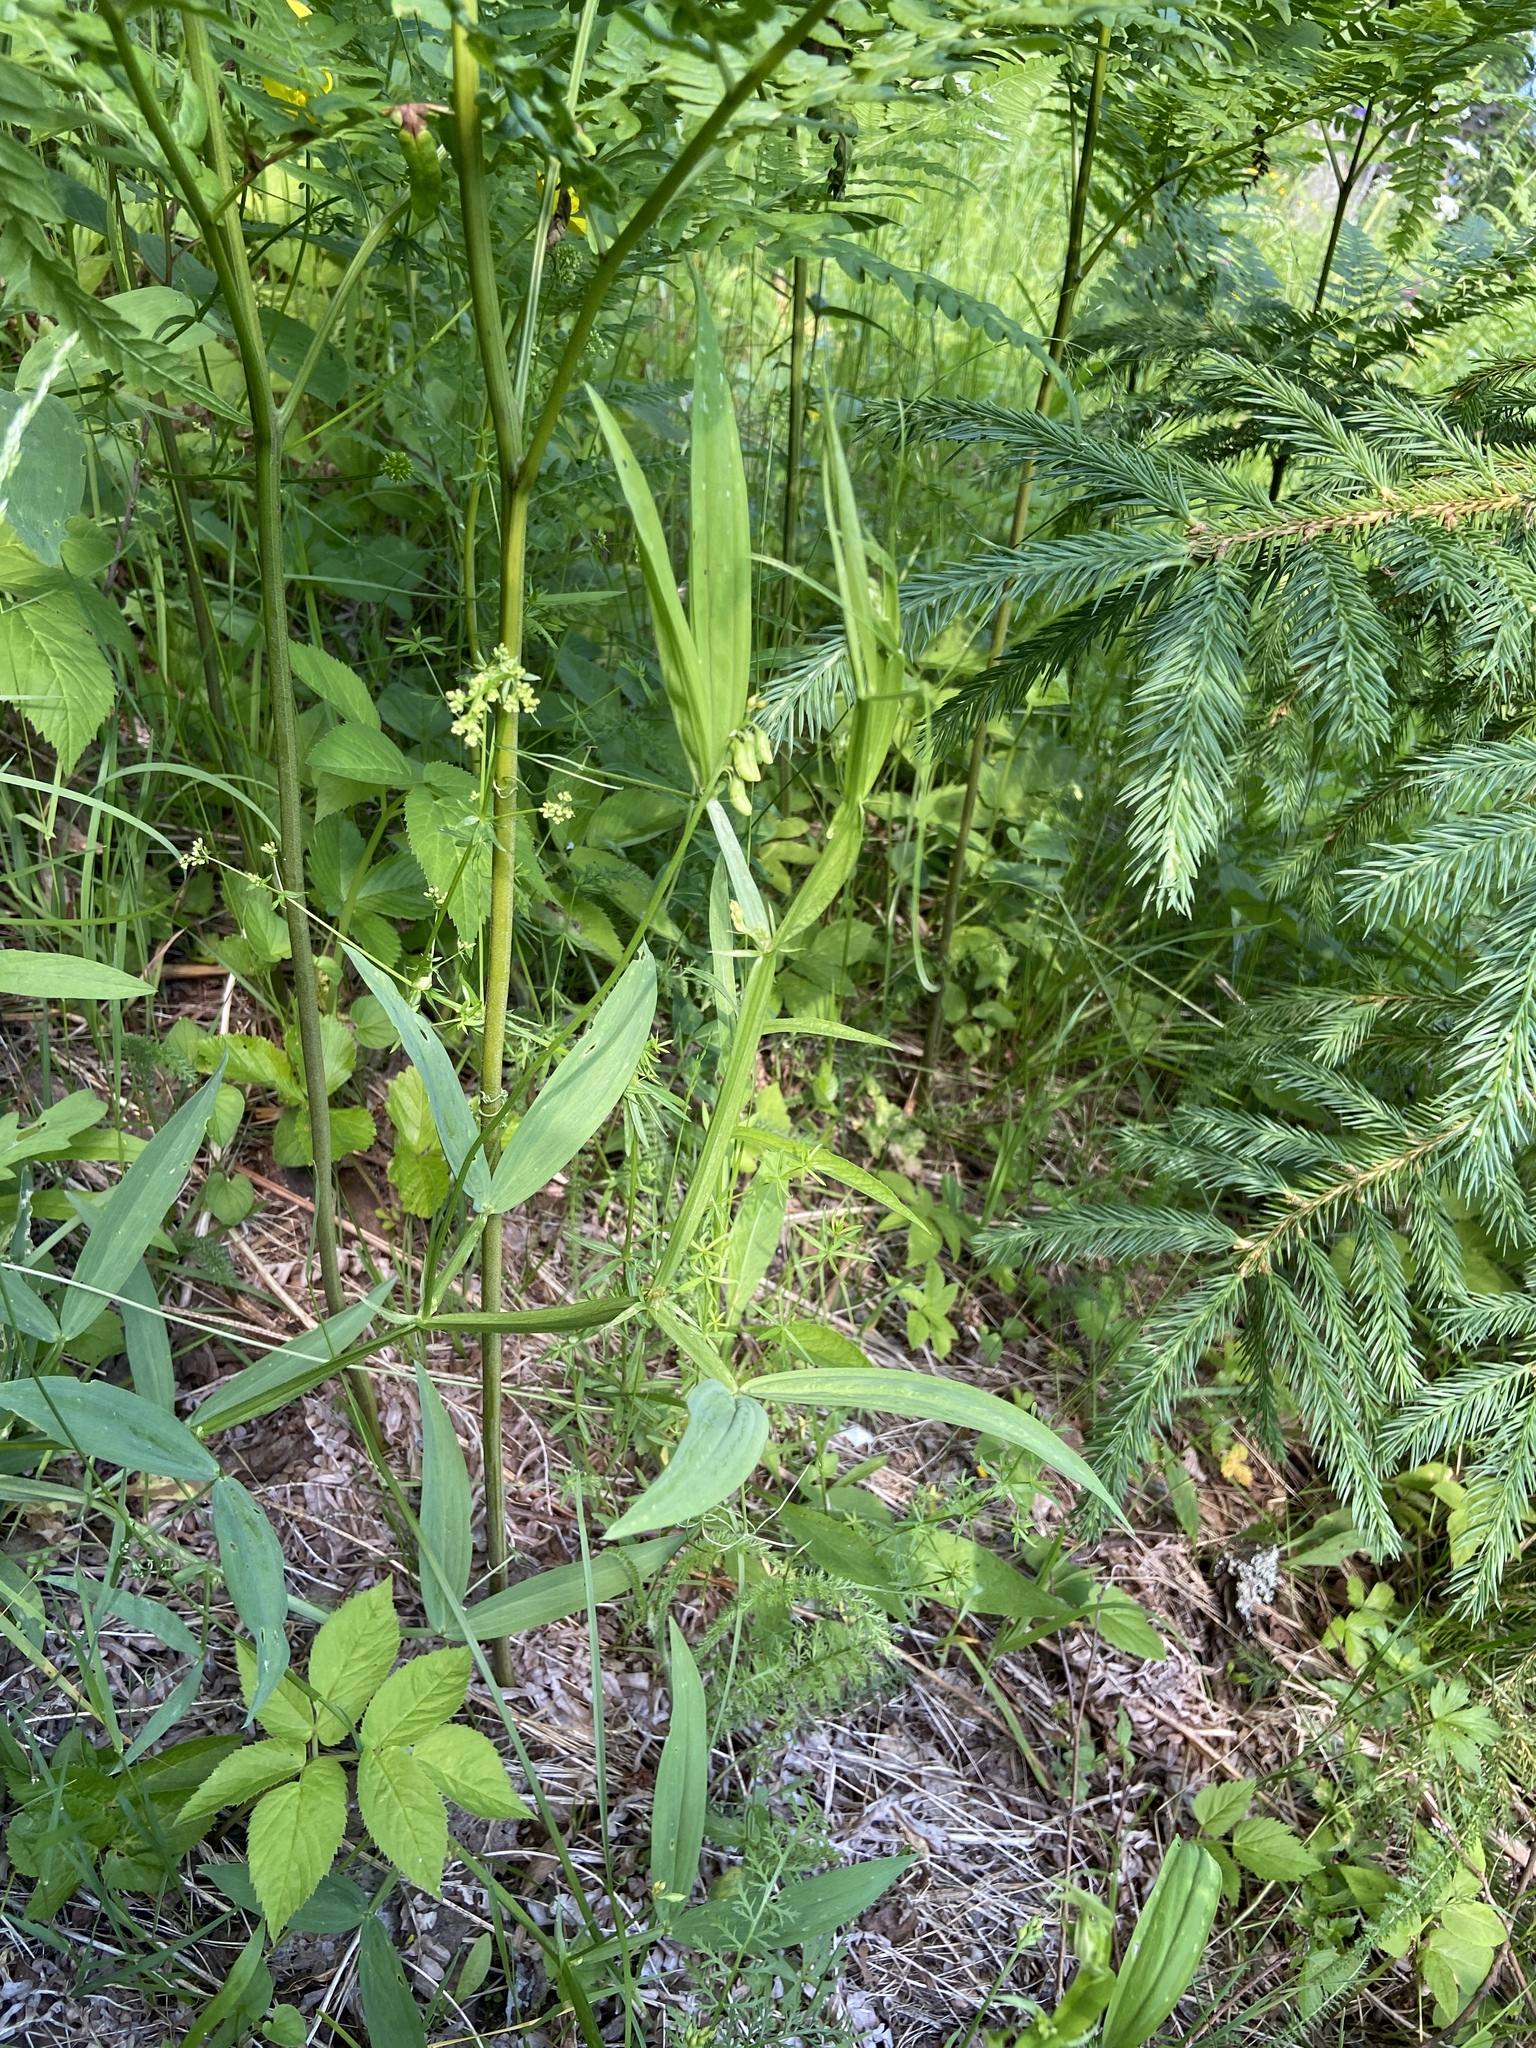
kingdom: Plantae
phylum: Tracheophyta
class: Magnoliopsida
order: Fabales
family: Fabaceae
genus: Lathyrus
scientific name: Lathyrus sylvestris
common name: Flat pea
